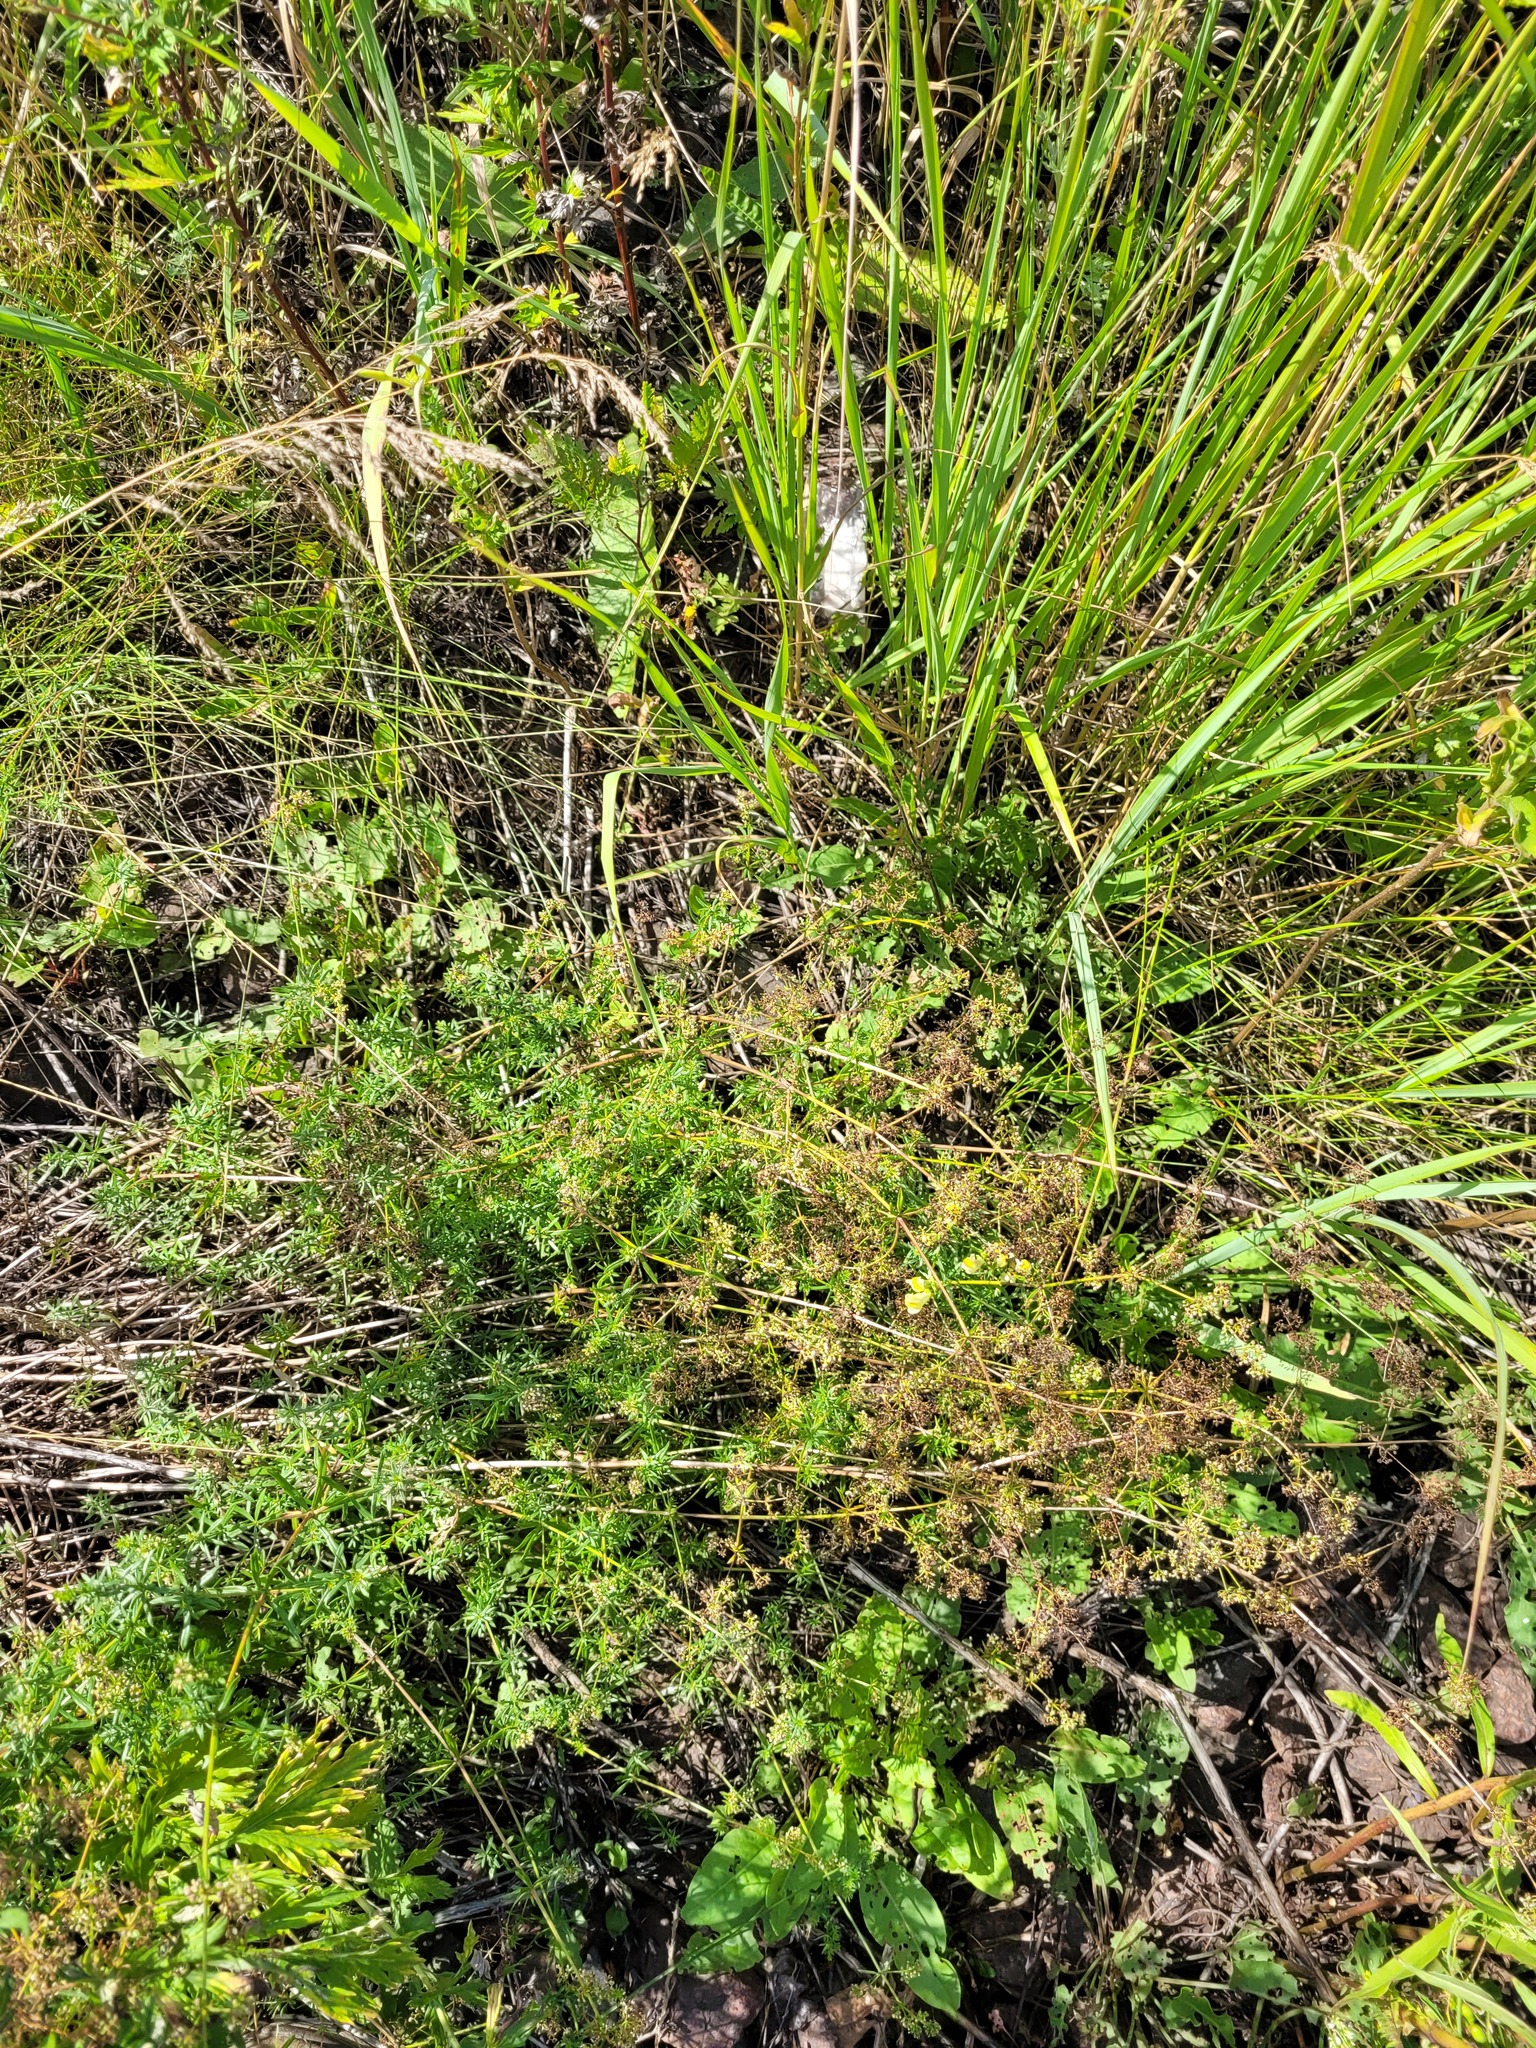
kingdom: Plantae
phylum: Tracheophyta
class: Magnoliopsida
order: Gentianales
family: Rubiaceae
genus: Galium
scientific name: Galium mollugo
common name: Hedge bedstraw
